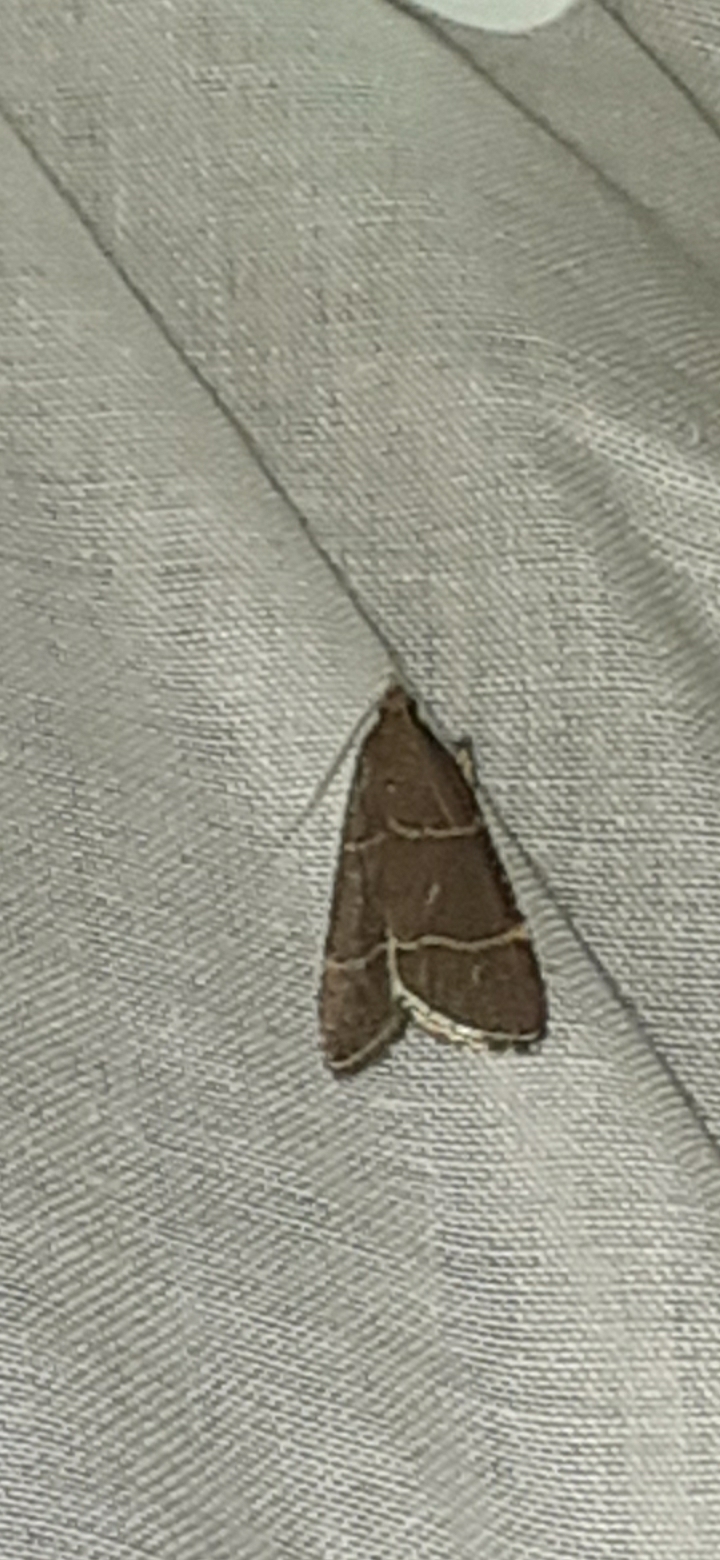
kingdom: Animalia
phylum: Arthropoda
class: Insecta
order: Lepidoptera
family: Pyralidae
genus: Hypsopygia
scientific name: Hypsopygia glaucinalis
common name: Double-striped tabby
